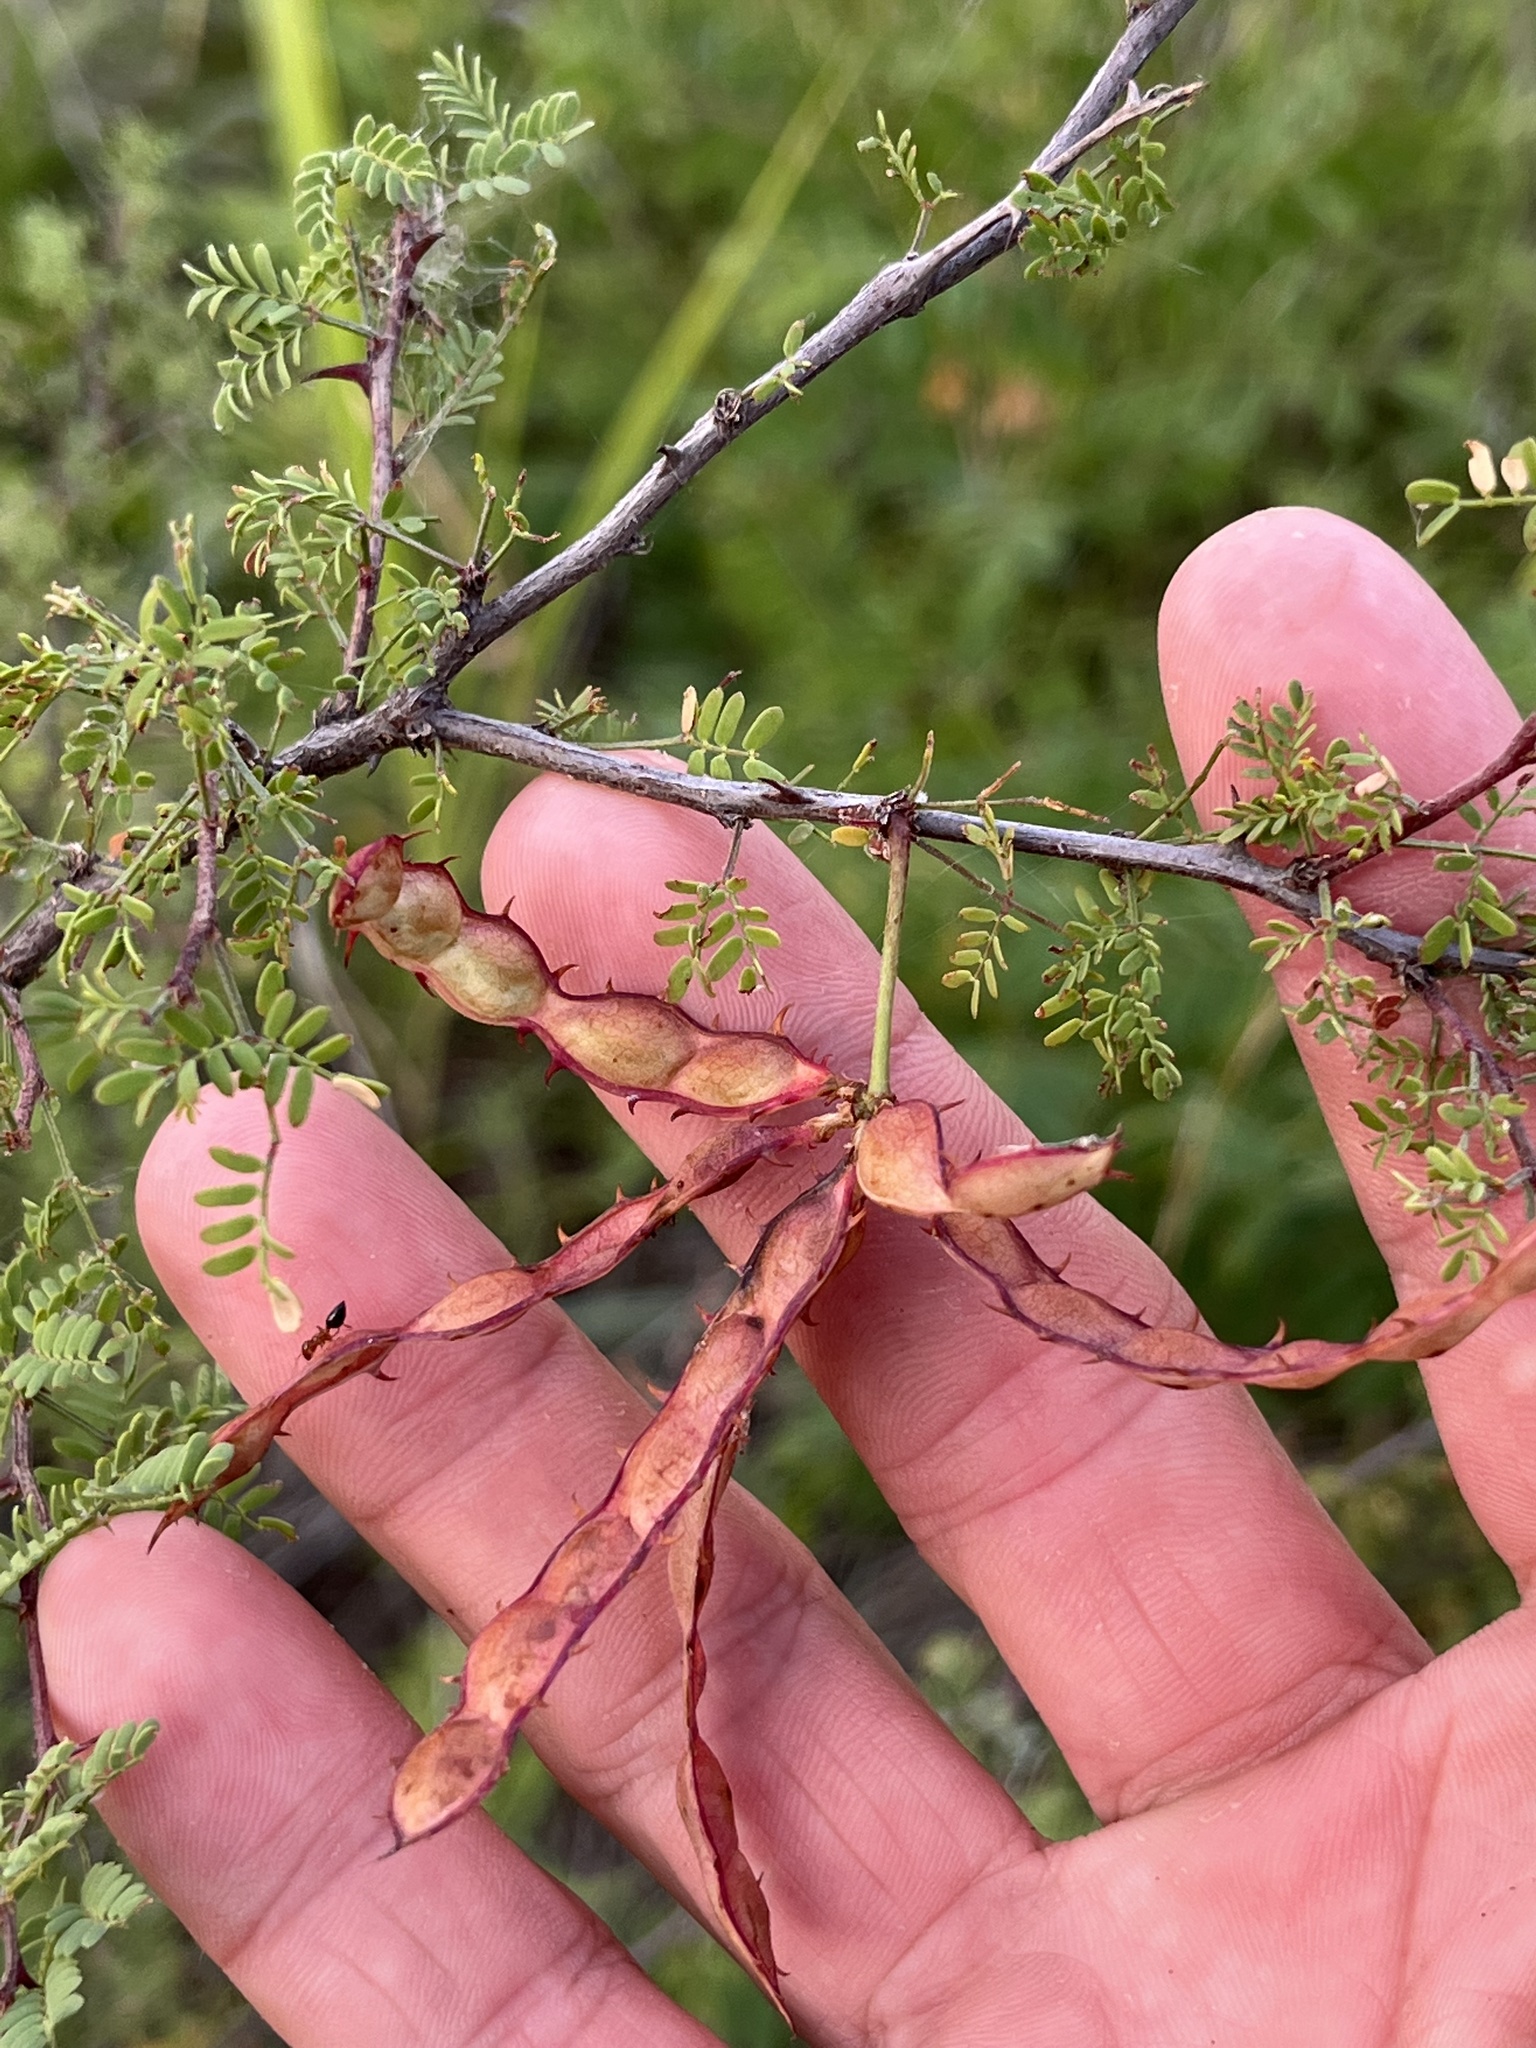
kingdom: Plantae
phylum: Tracheophyta
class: Magnoliopsida
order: Fabales
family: Fabaceae
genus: Mimosa
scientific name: Mimosa texana
